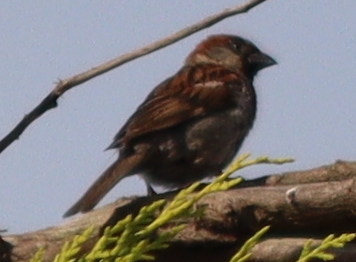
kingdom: Animalia
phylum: Chordata
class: Aves
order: Passeriformes
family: Passeridae
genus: Passer
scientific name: Passer domesticus
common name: House sparrow
